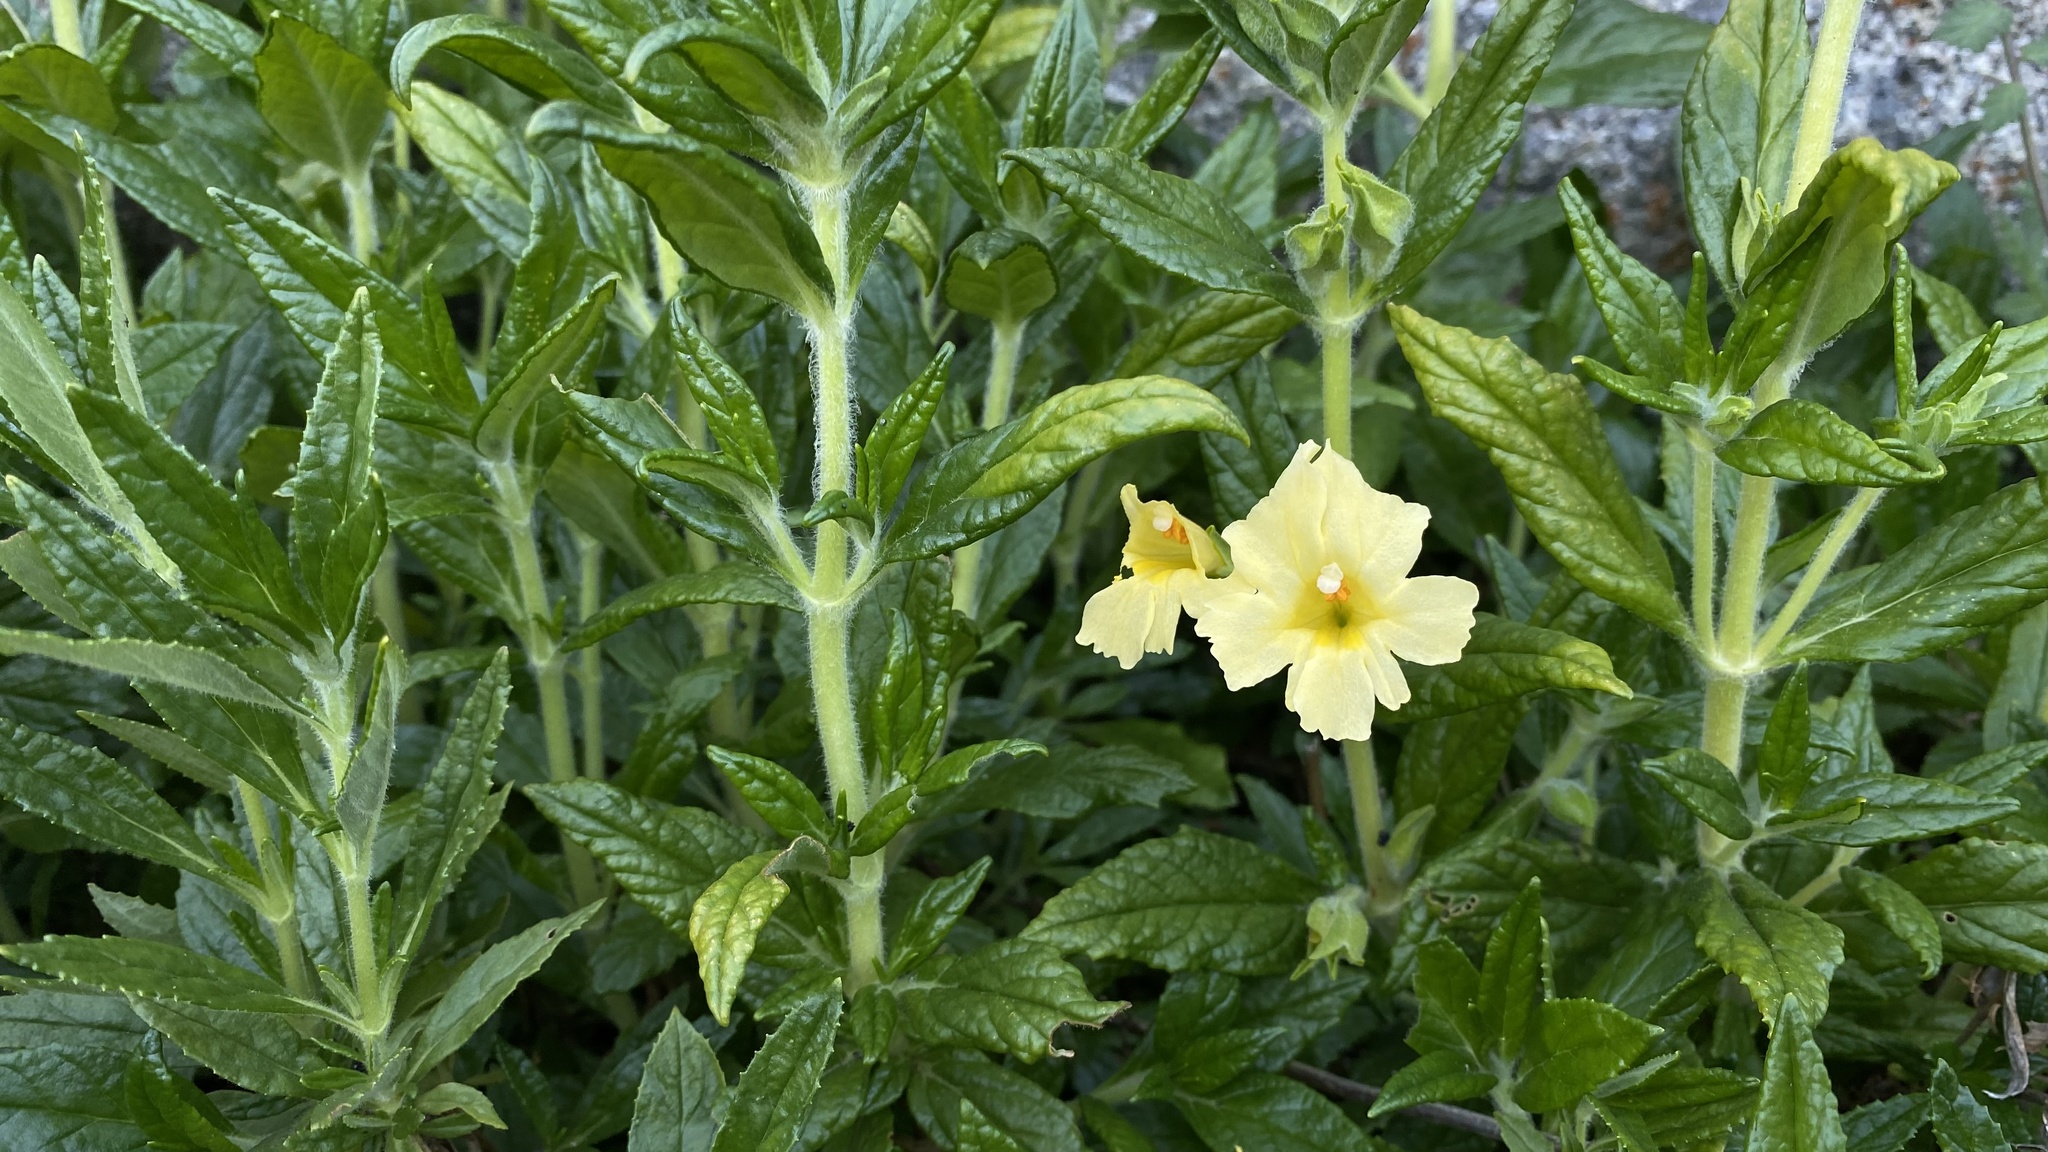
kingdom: Plantae
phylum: Tracheophyta
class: Magnoliopsida
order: Lamiales
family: Phrymaceae
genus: Diplacus
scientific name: Diplacus calycinus
